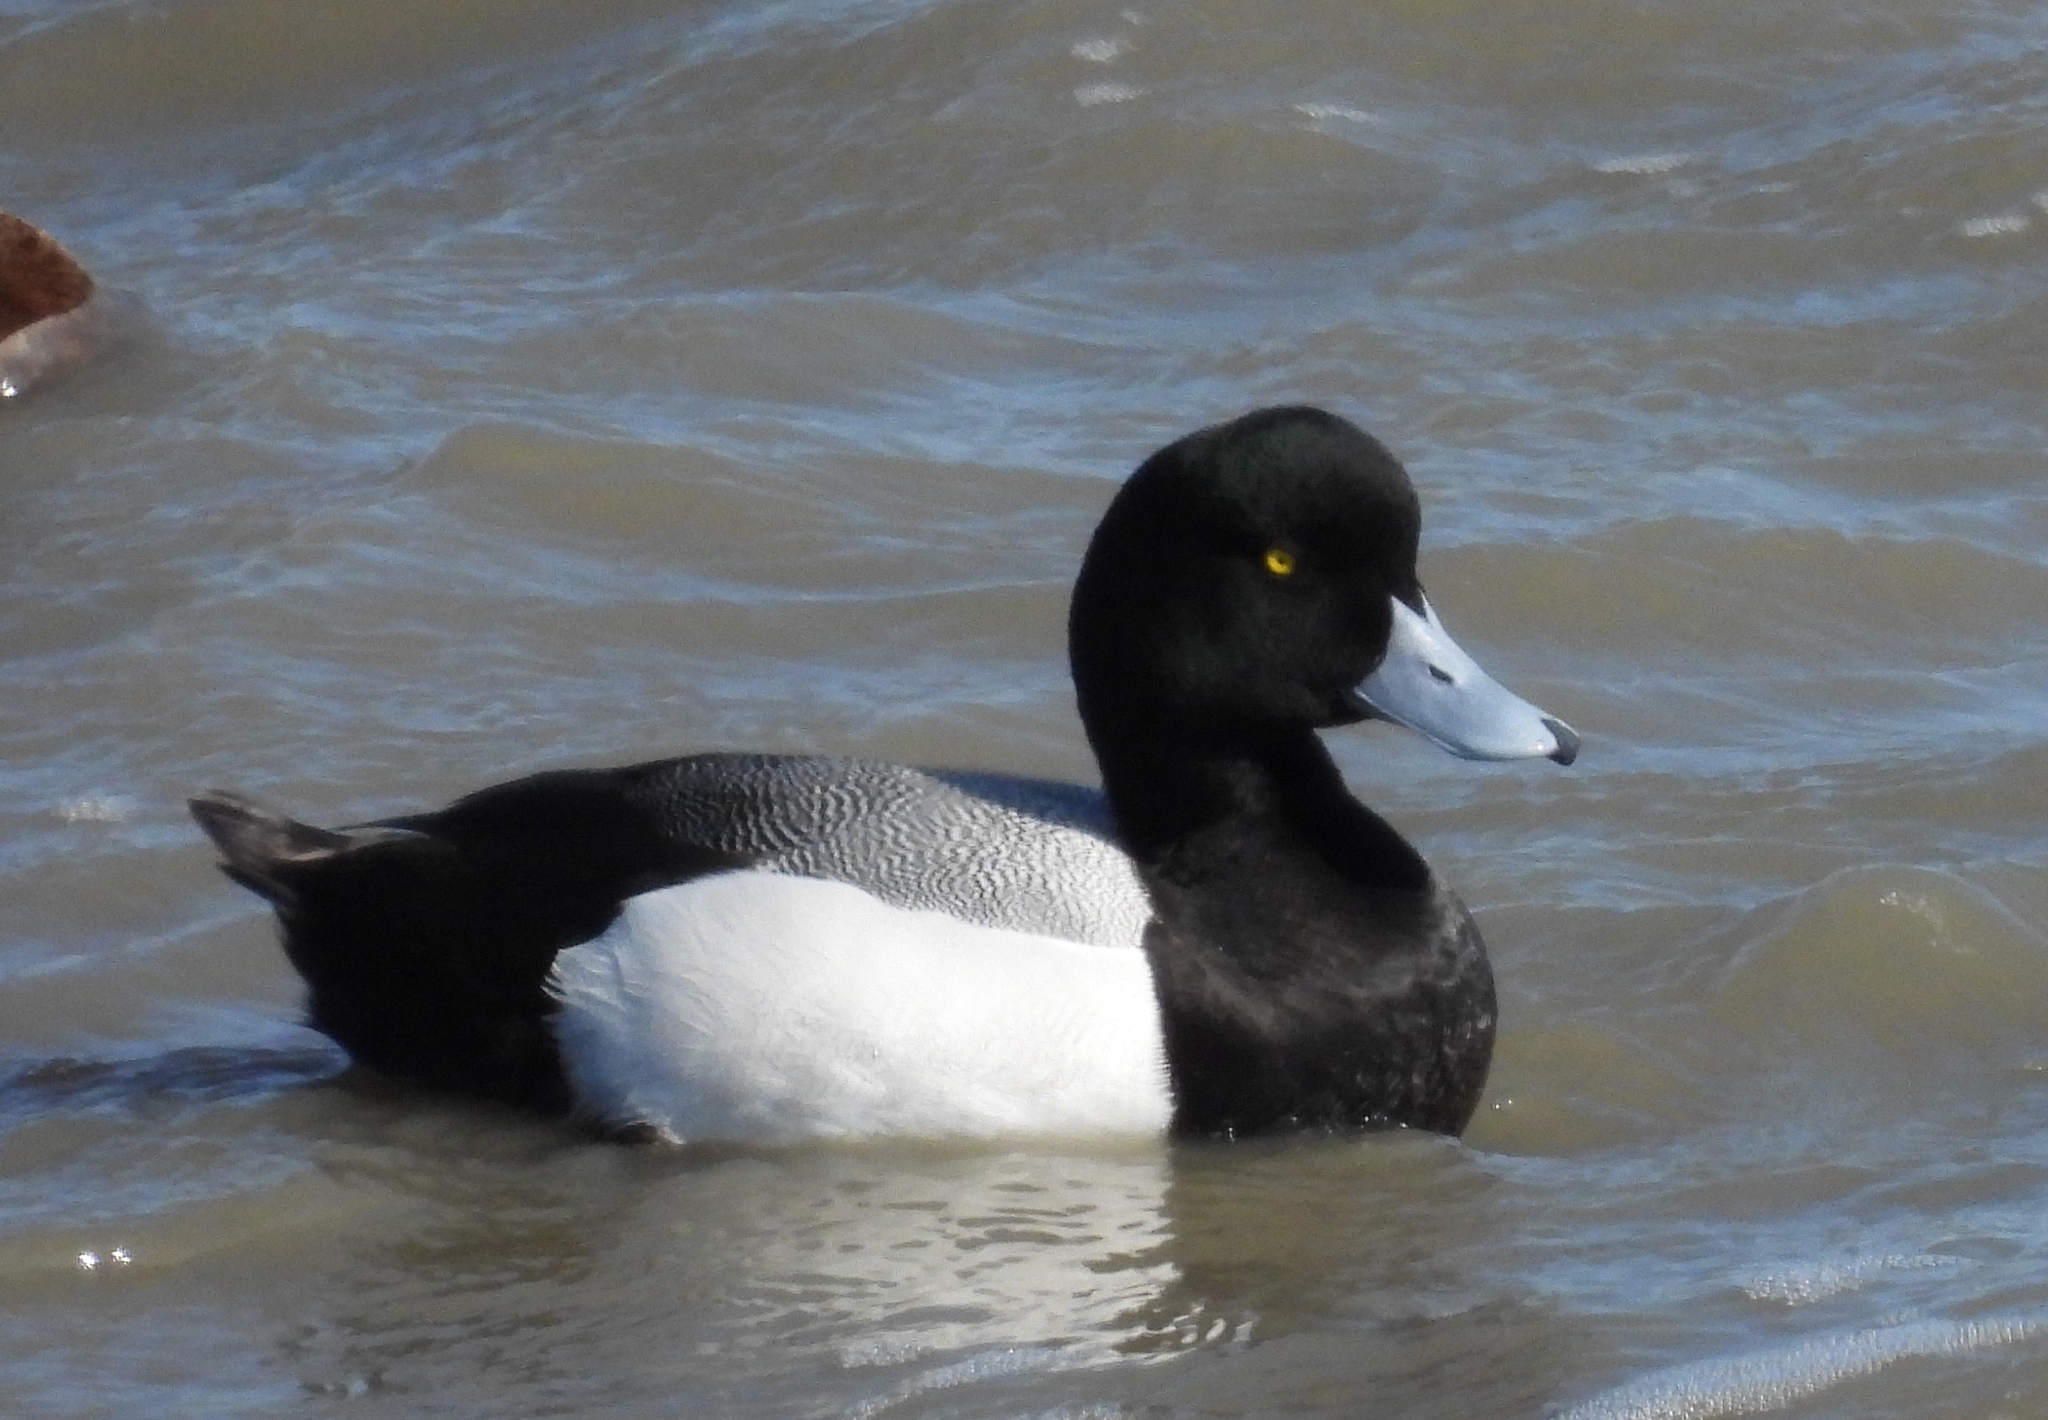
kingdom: Animalia
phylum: Chordata
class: Aves
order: Anseriformes
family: Anatidae
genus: Aythya
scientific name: Aythya marila
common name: Greater scaup
